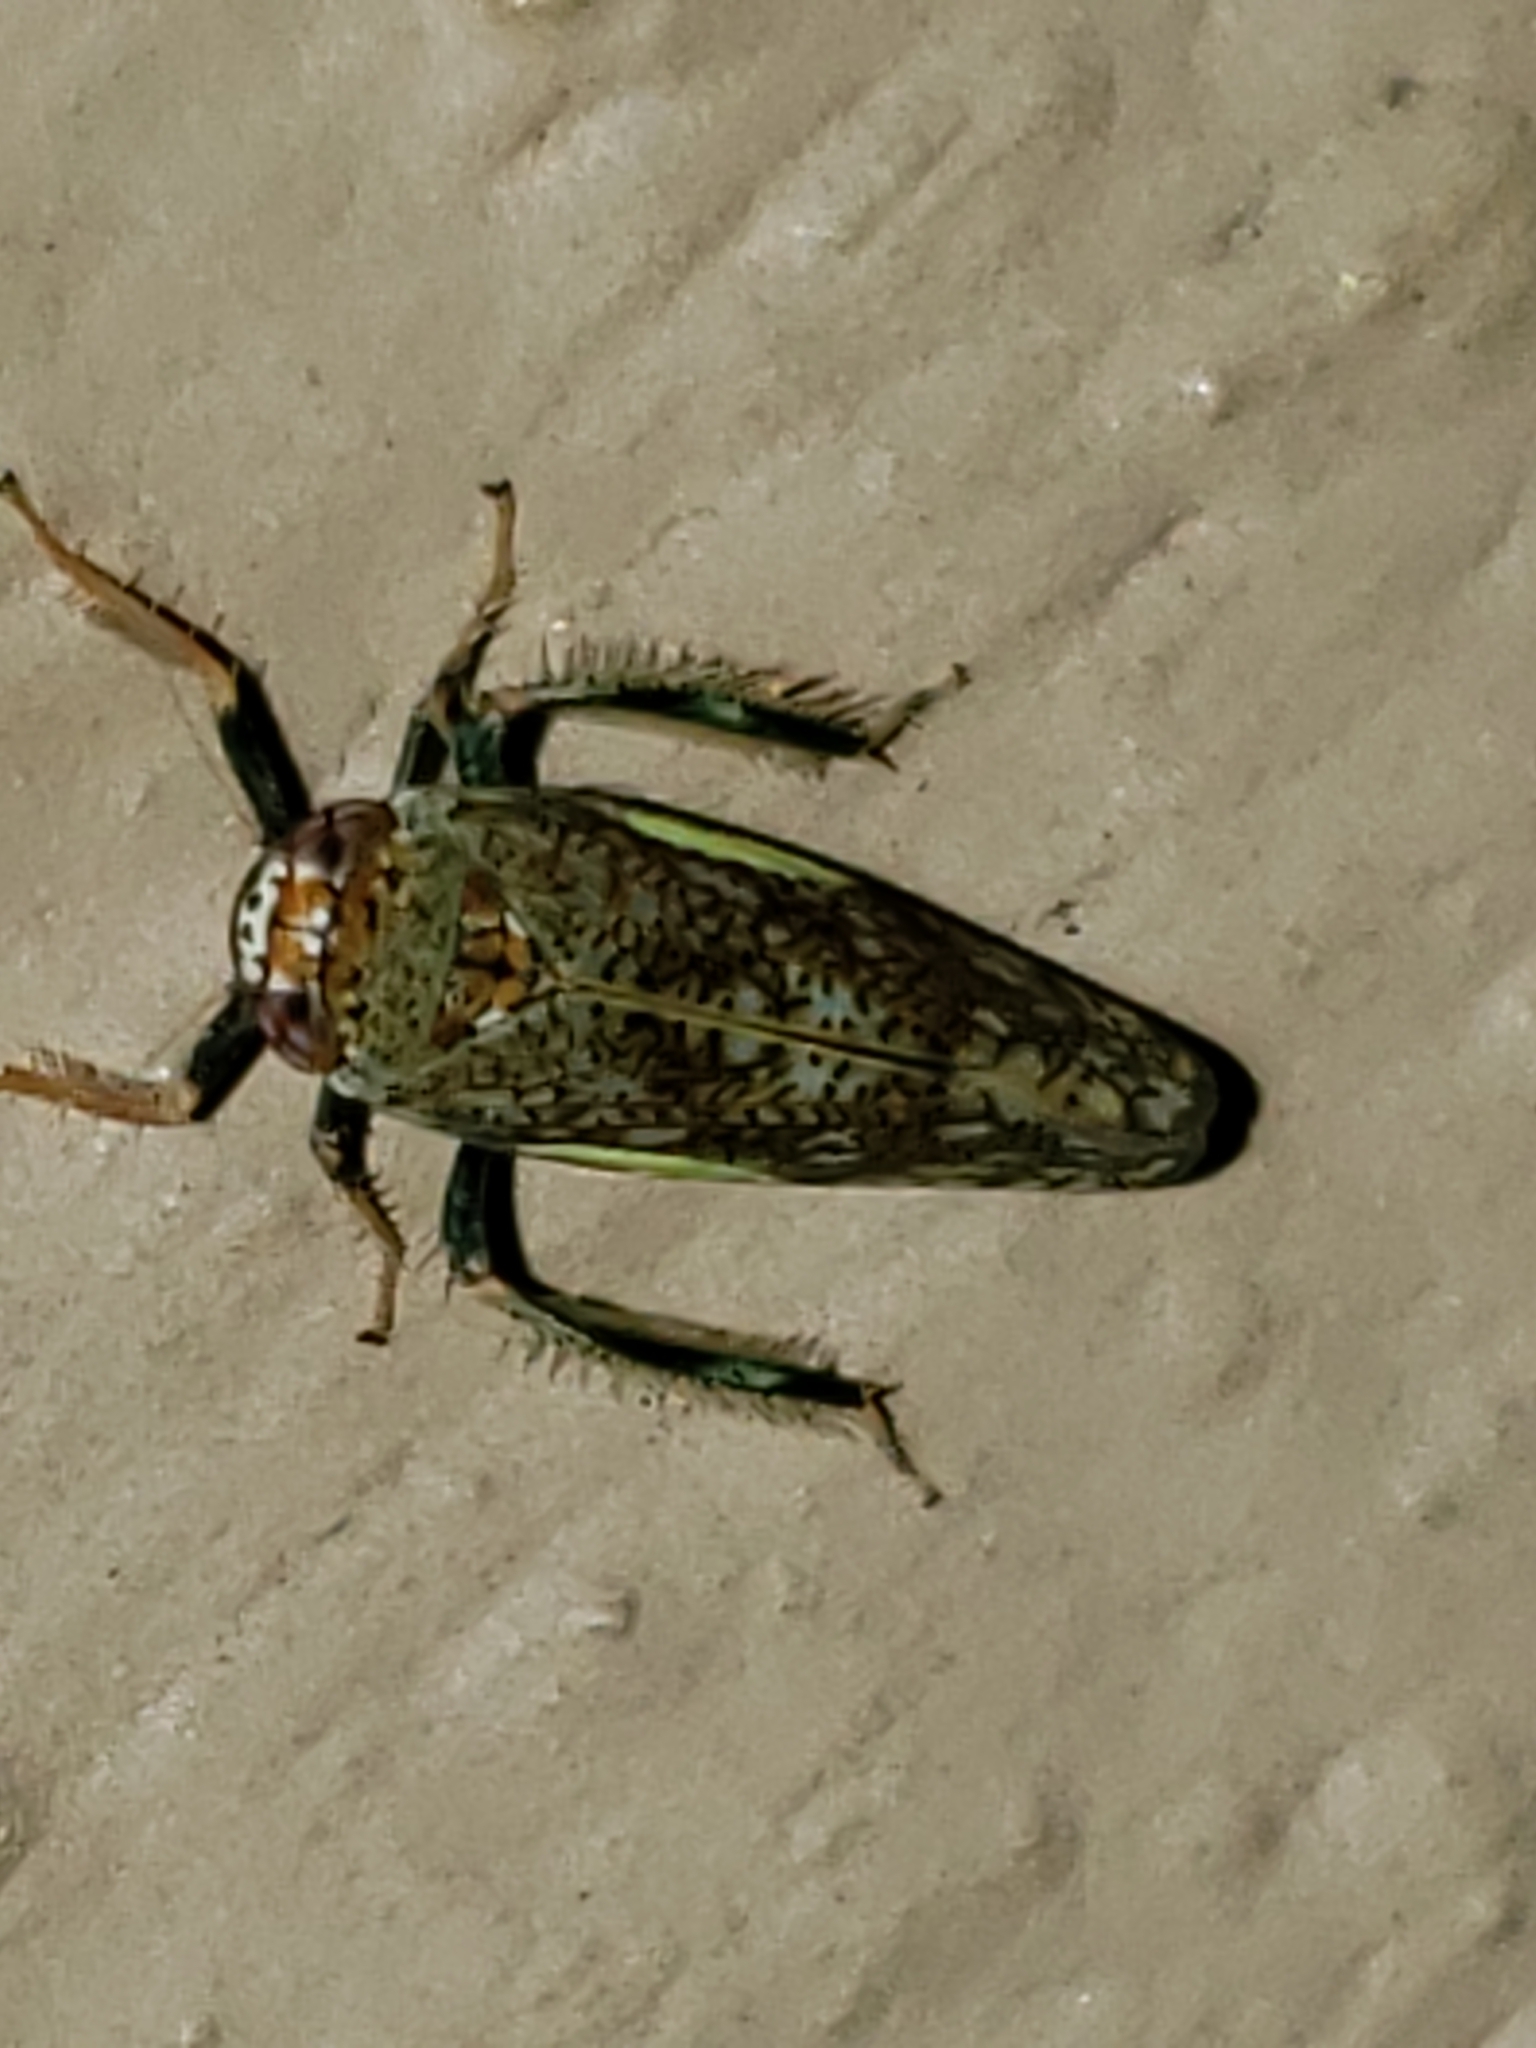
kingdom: Animalia
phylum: Arthropoda
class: Insecta
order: Hemiptera
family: Cicadellidae
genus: Orientus
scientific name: Orientus ishidae
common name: Japanese leafhopper
